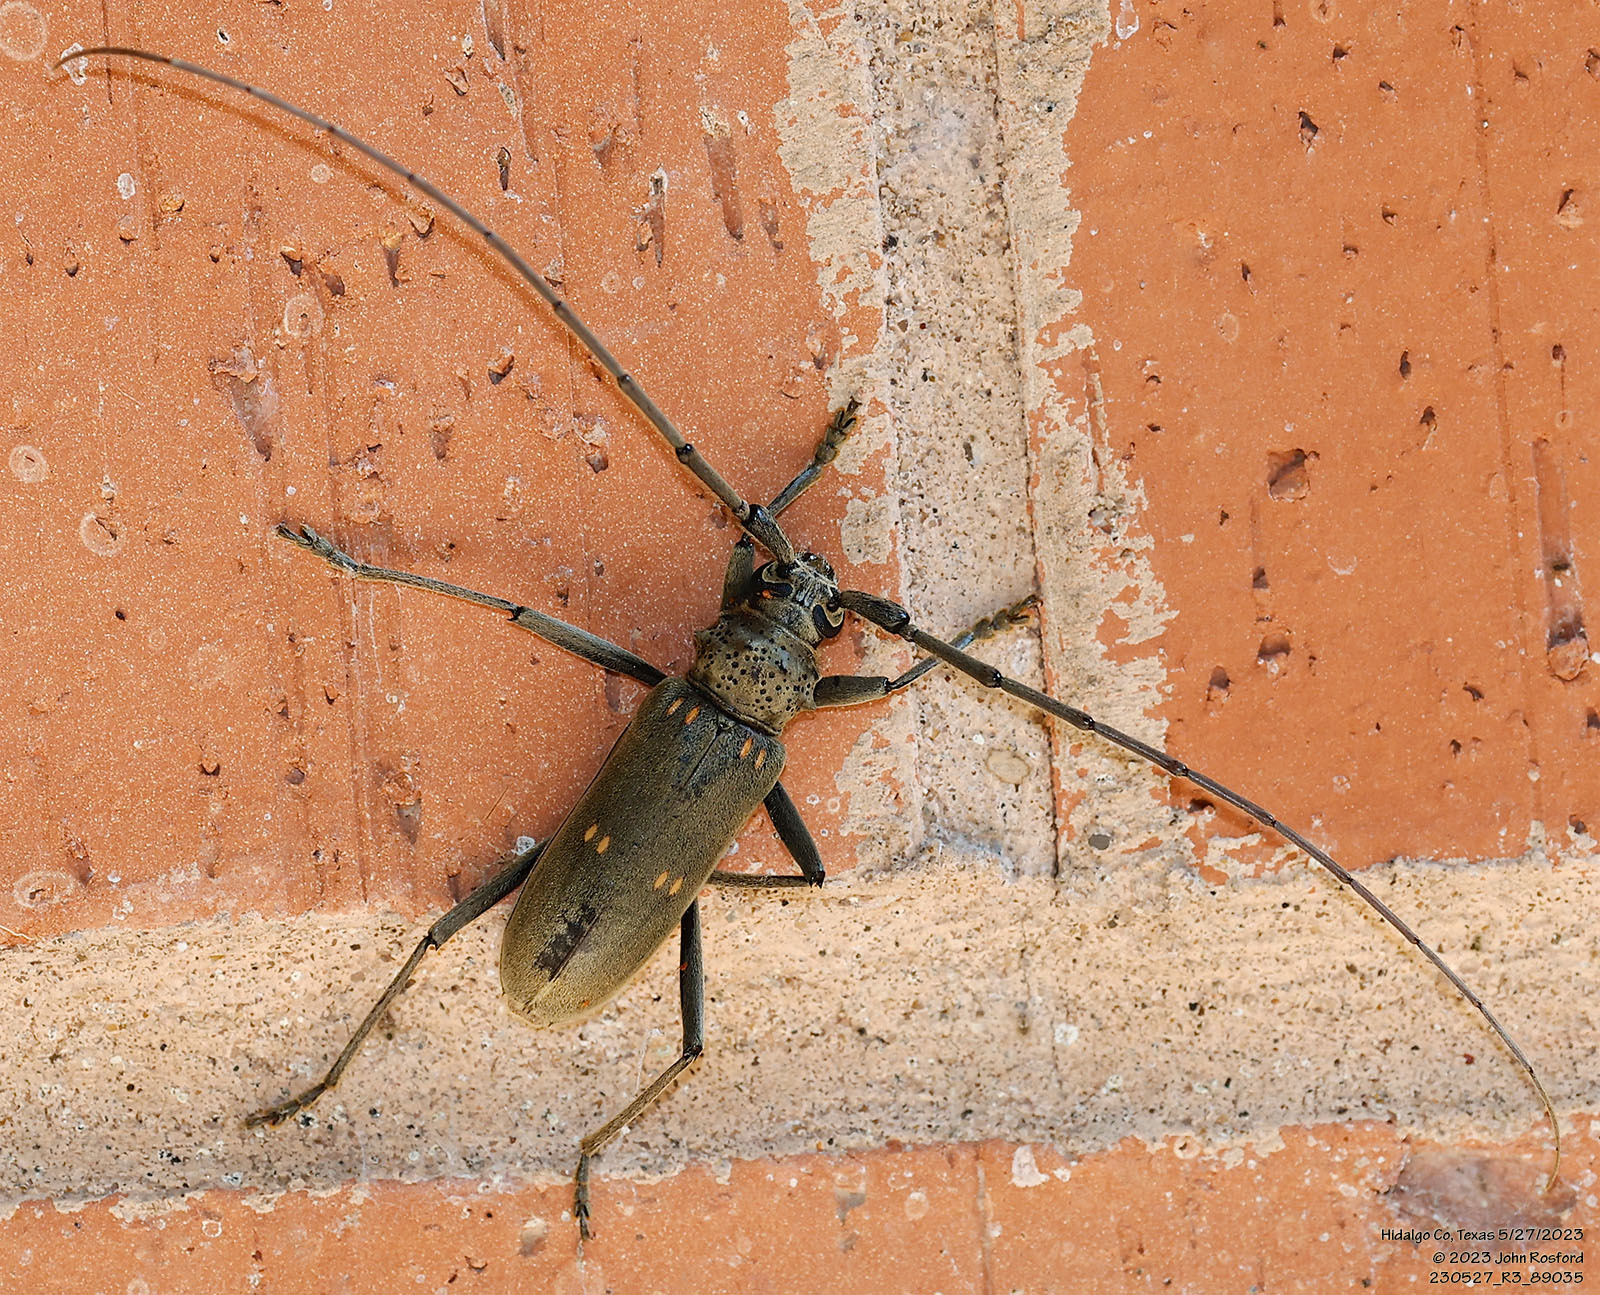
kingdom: Animalia
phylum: Arthropoda
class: Insecta
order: Coleoptera
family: Cerambycidae
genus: Susuacanga
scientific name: Susuacanga stigmatica
